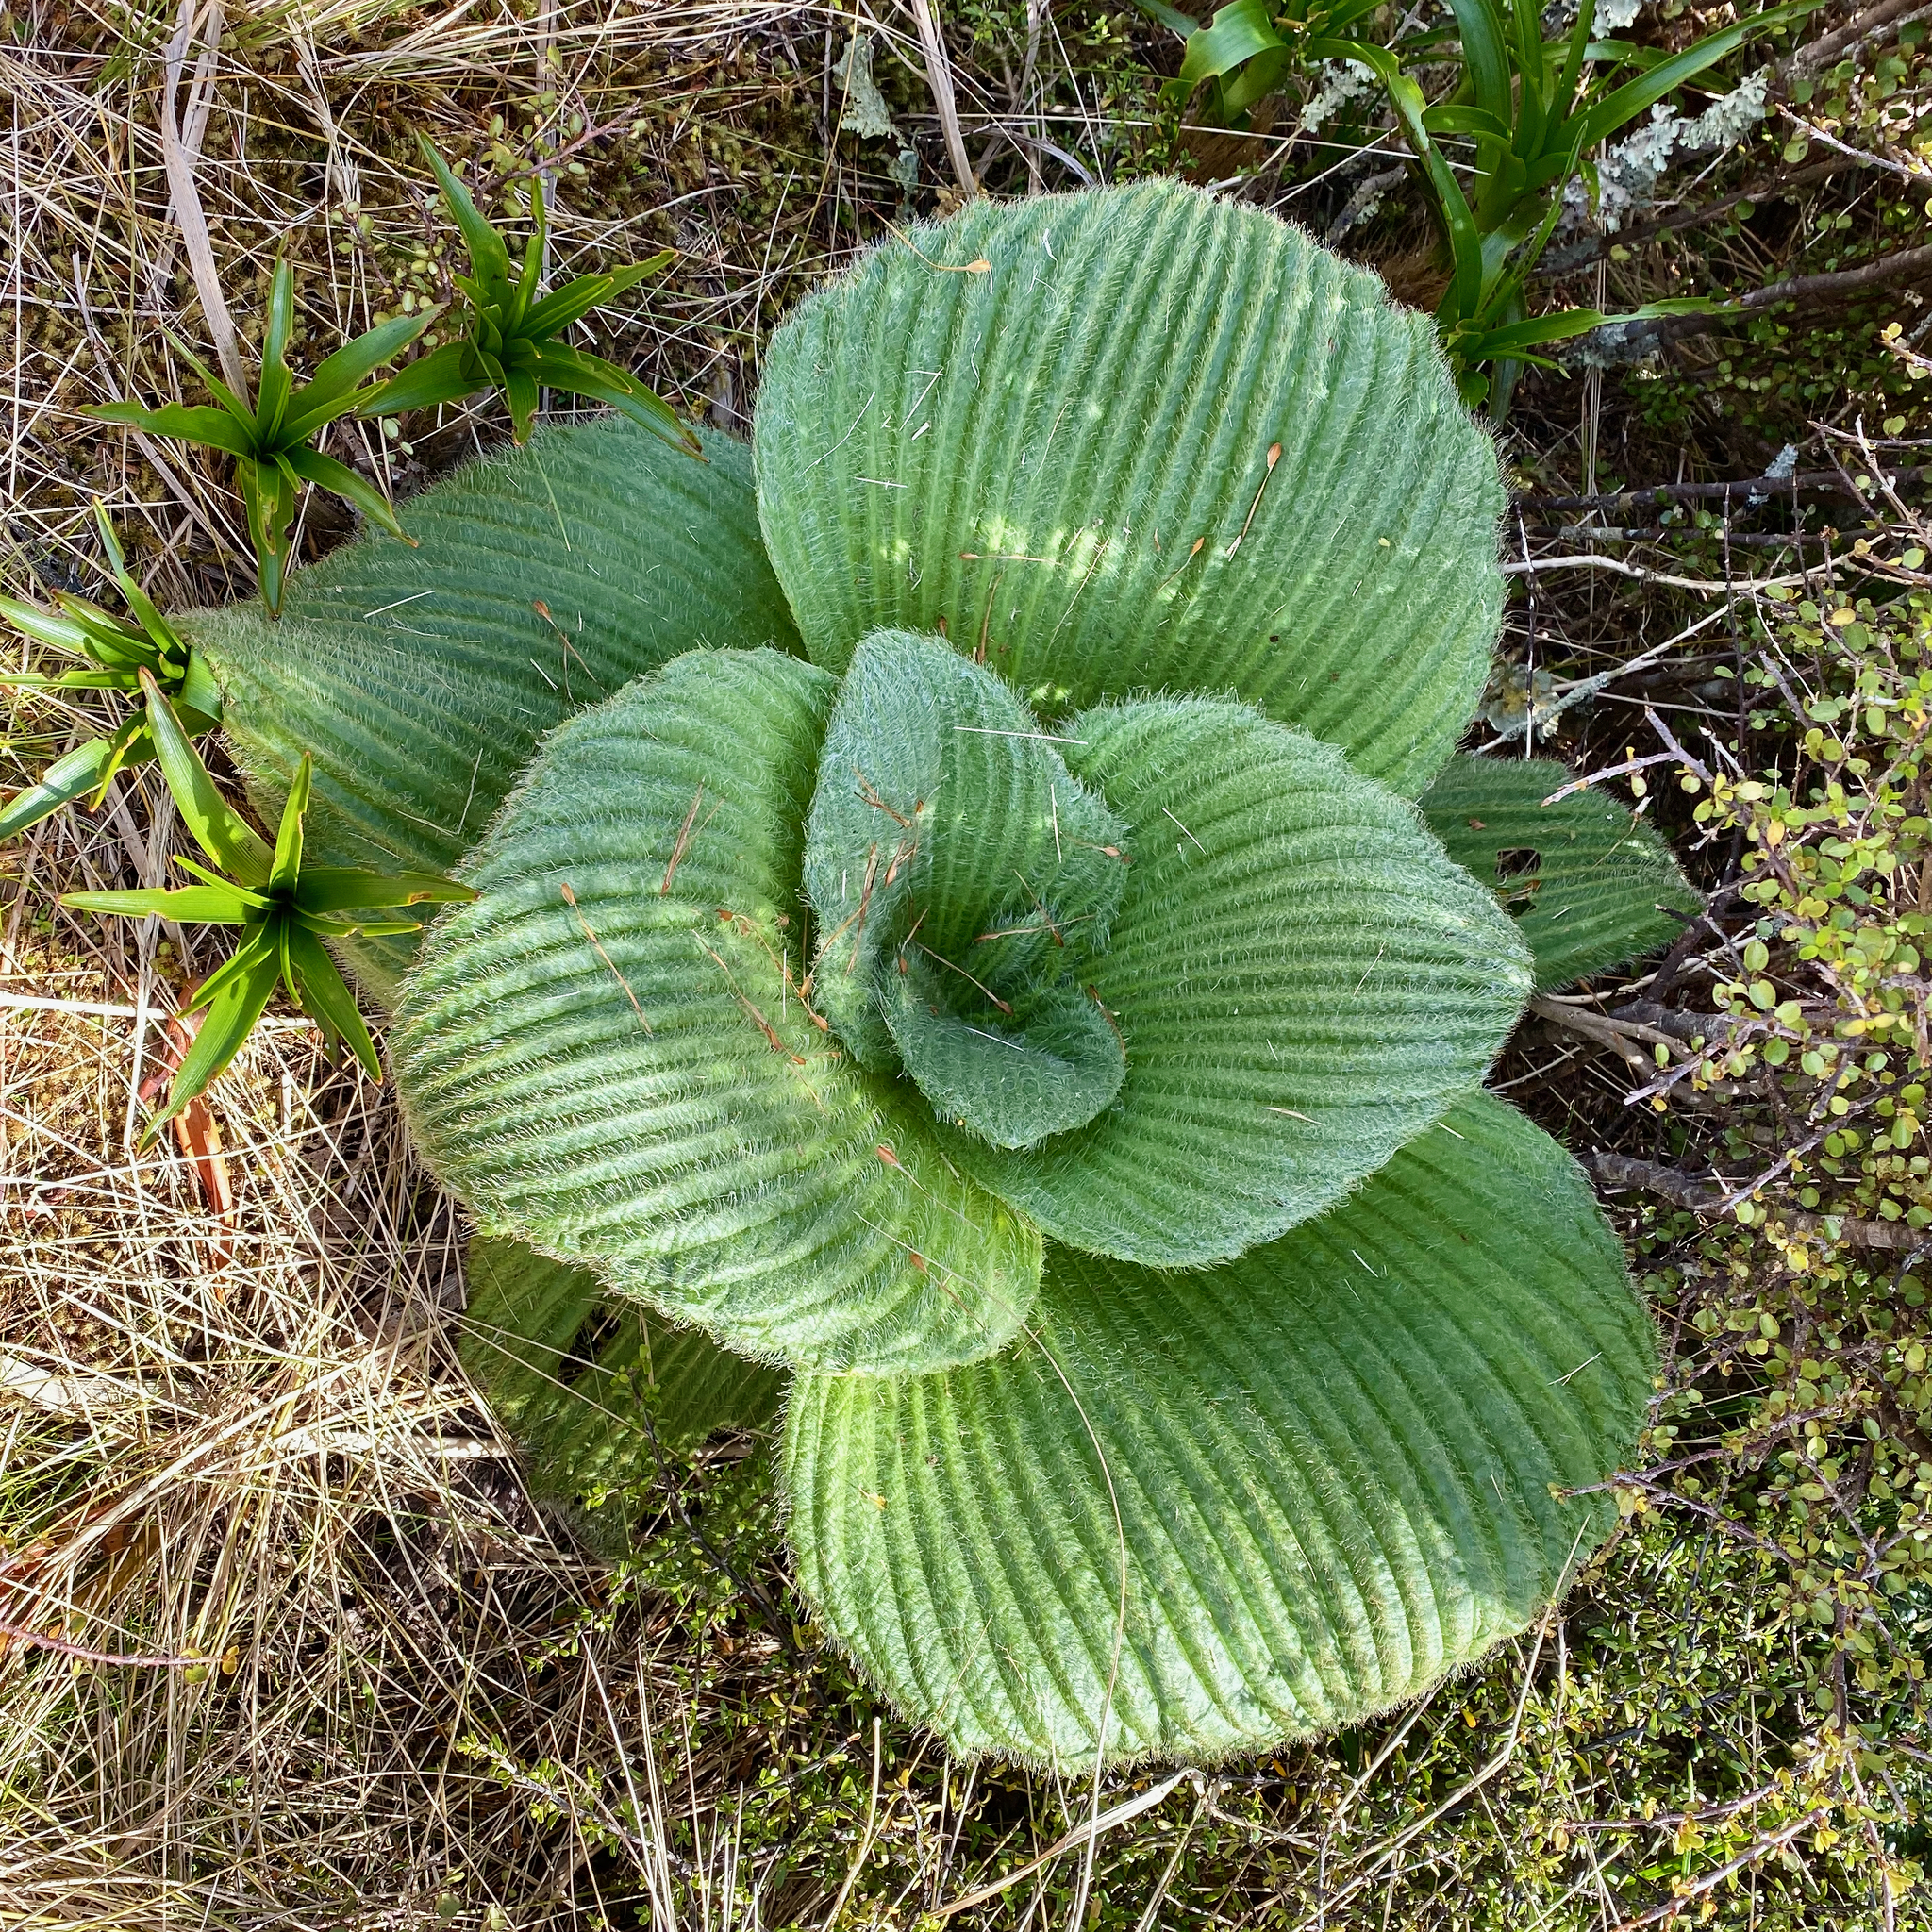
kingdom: Plantae
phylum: Tracheophyta
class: Magnoliopsida
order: Asterales
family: Asteraceae
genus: Pleurophyllum
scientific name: Pleurophyllum speciosum
